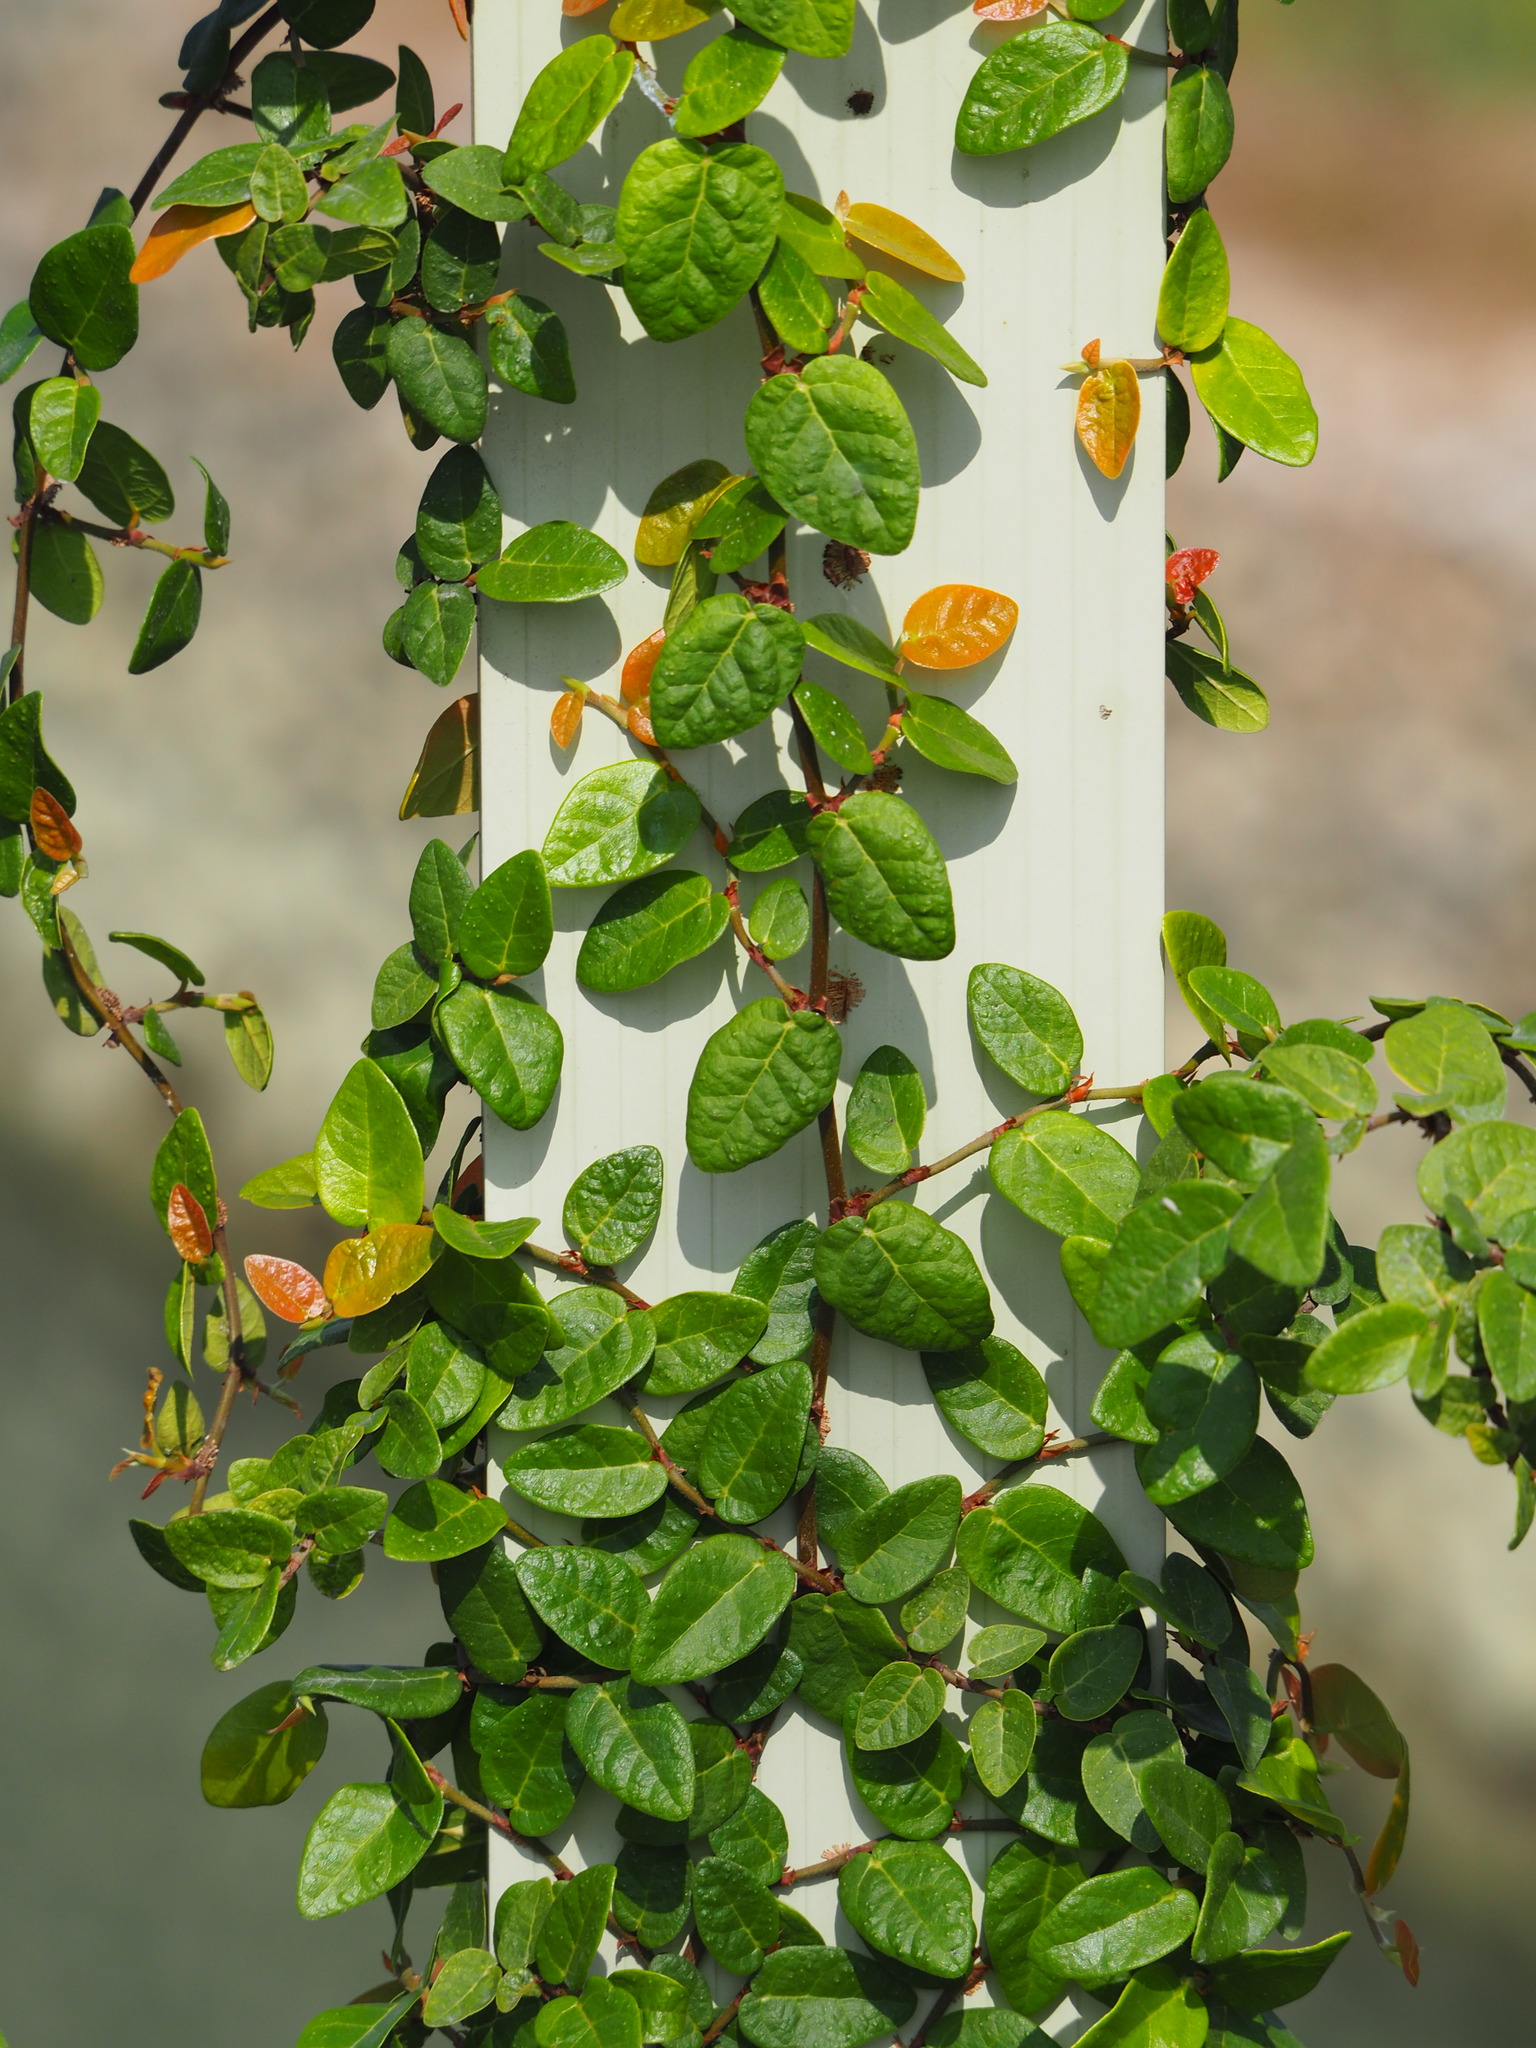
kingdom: Plantae
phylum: Tracheophyta
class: Magnoliopsida
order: Rosales
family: Moraceae
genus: Ficus
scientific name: Ficus pumila
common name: Climbingfig
